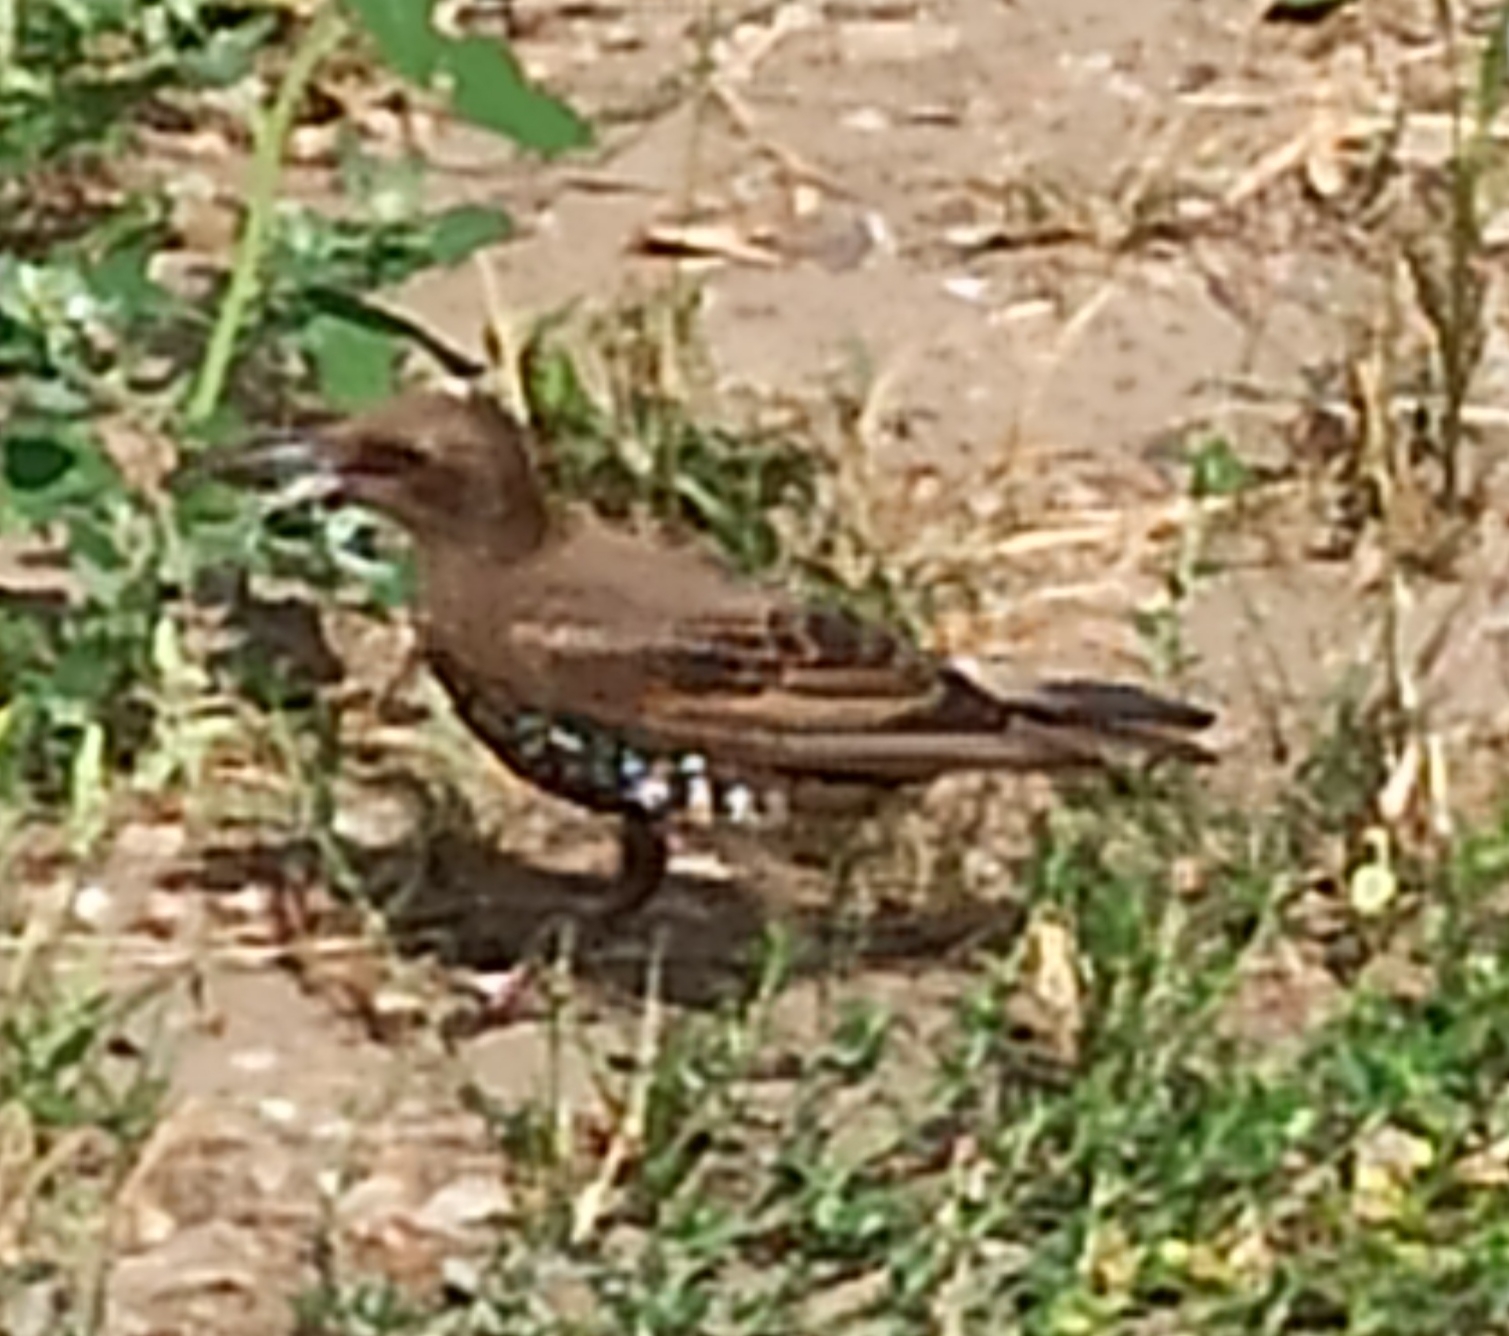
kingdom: Animalia
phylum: Chordata
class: Aves
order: Passeriformes
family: Sturnidae
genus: Sturnus
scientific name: Sturnus vulgaris
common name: Common starling
